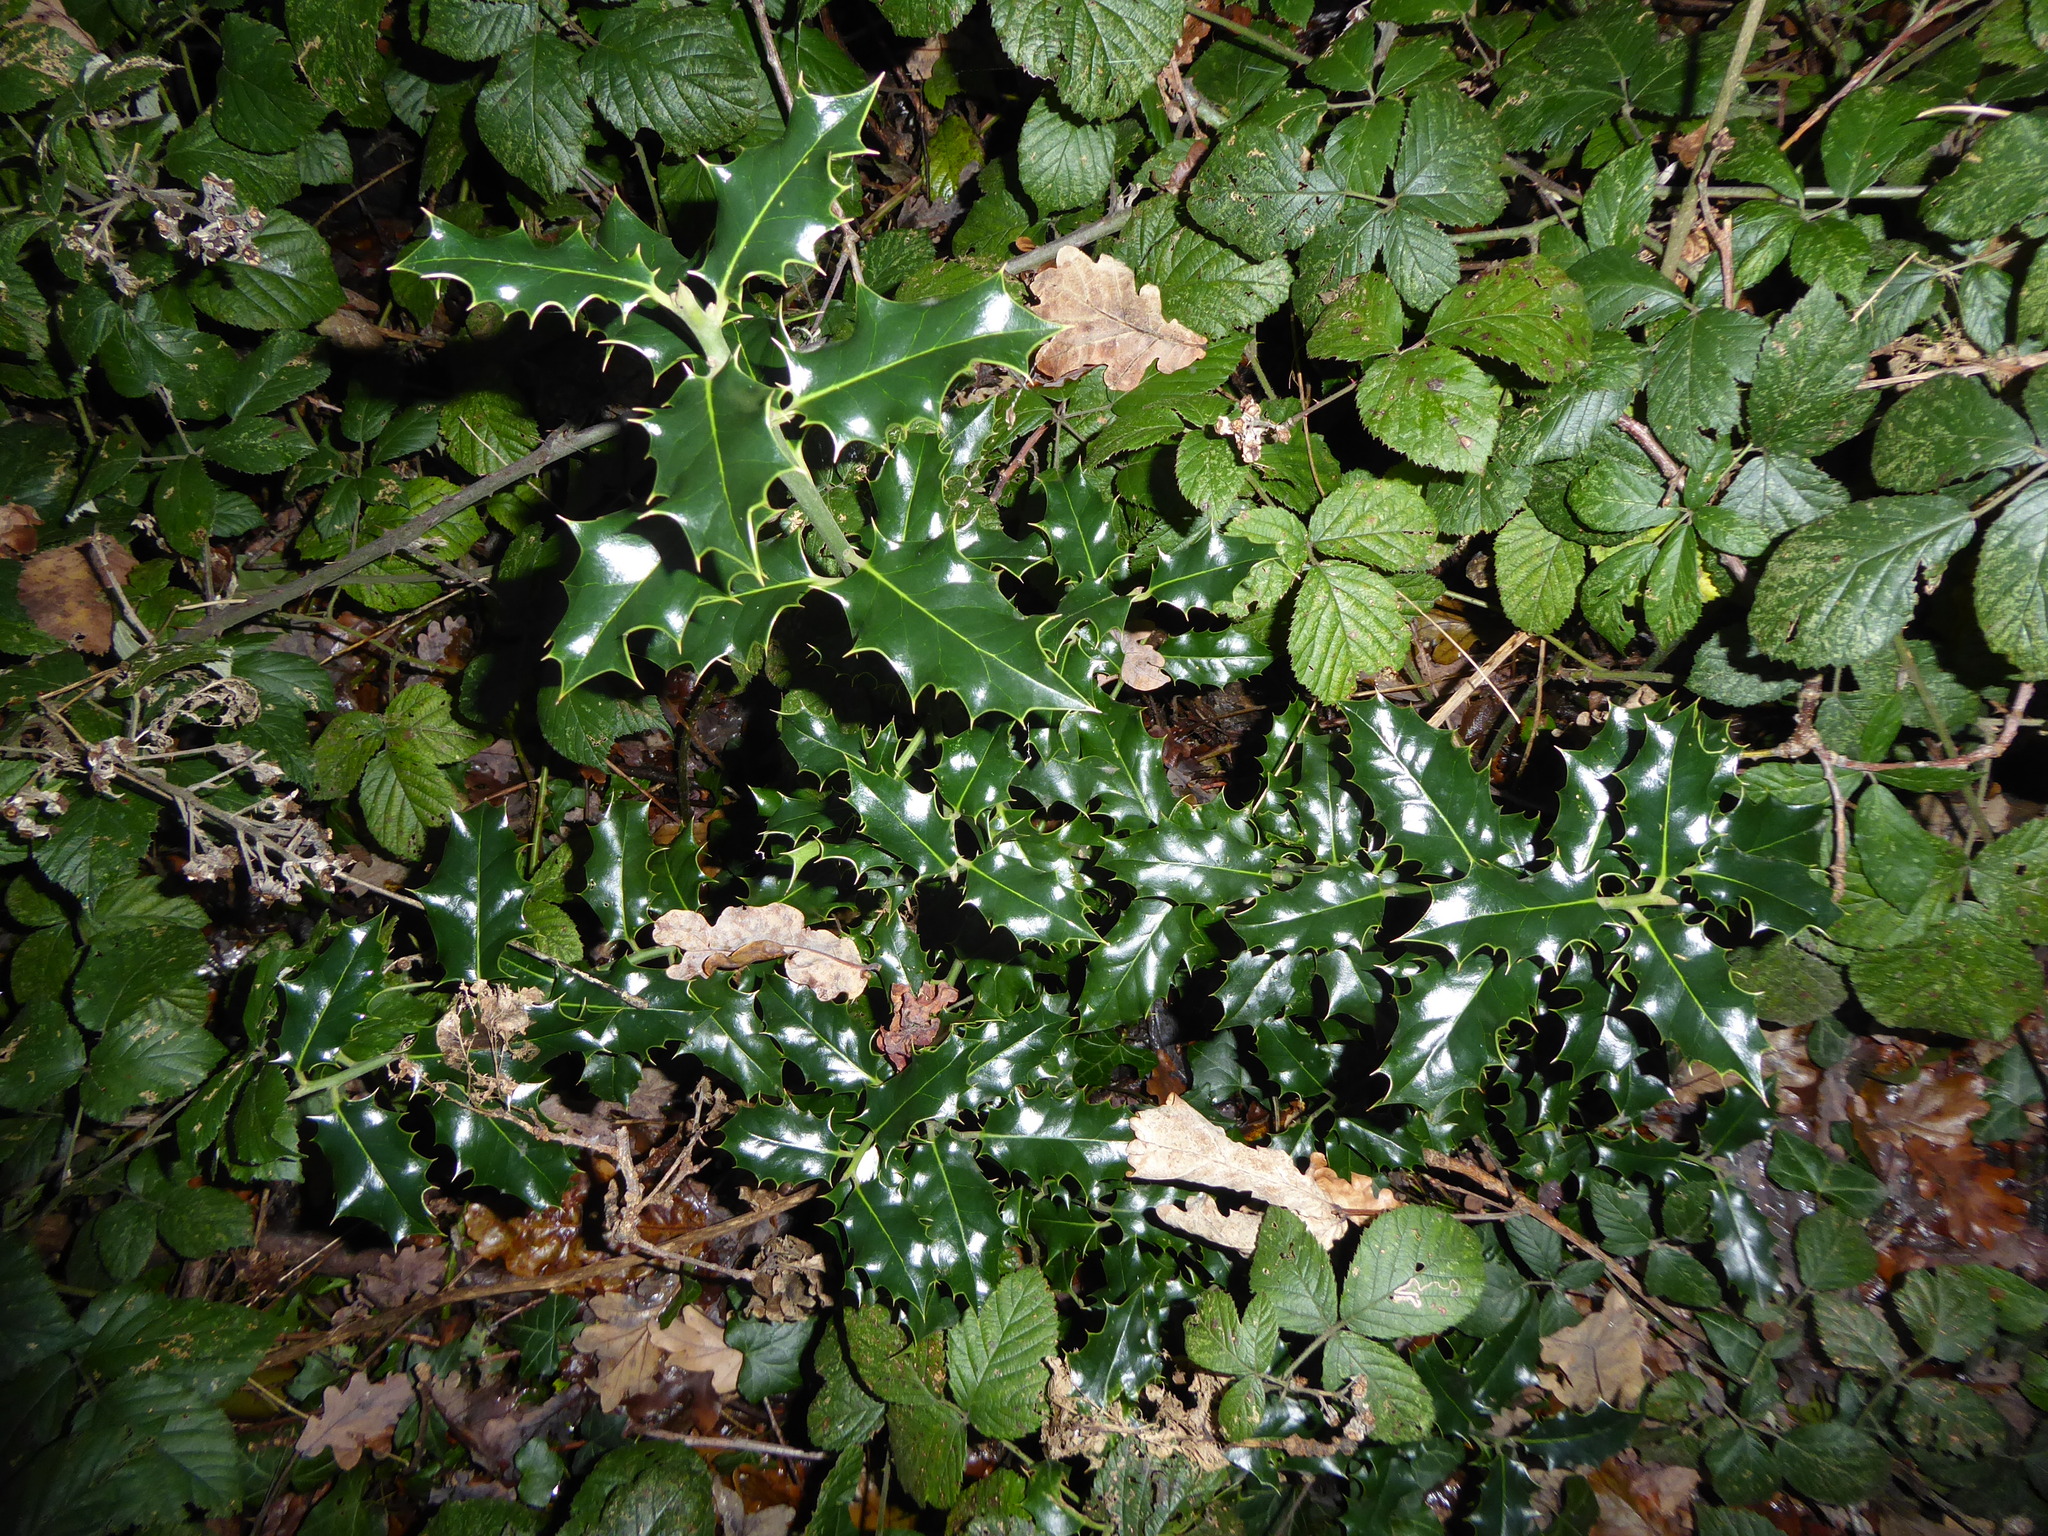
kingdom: Plantae
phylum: Tracheophyta
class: Magnoliopsida
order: Aquifoliales
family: Aquifoliaceae
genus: Ilex
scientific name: Ilex aquifolium
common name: English holly
